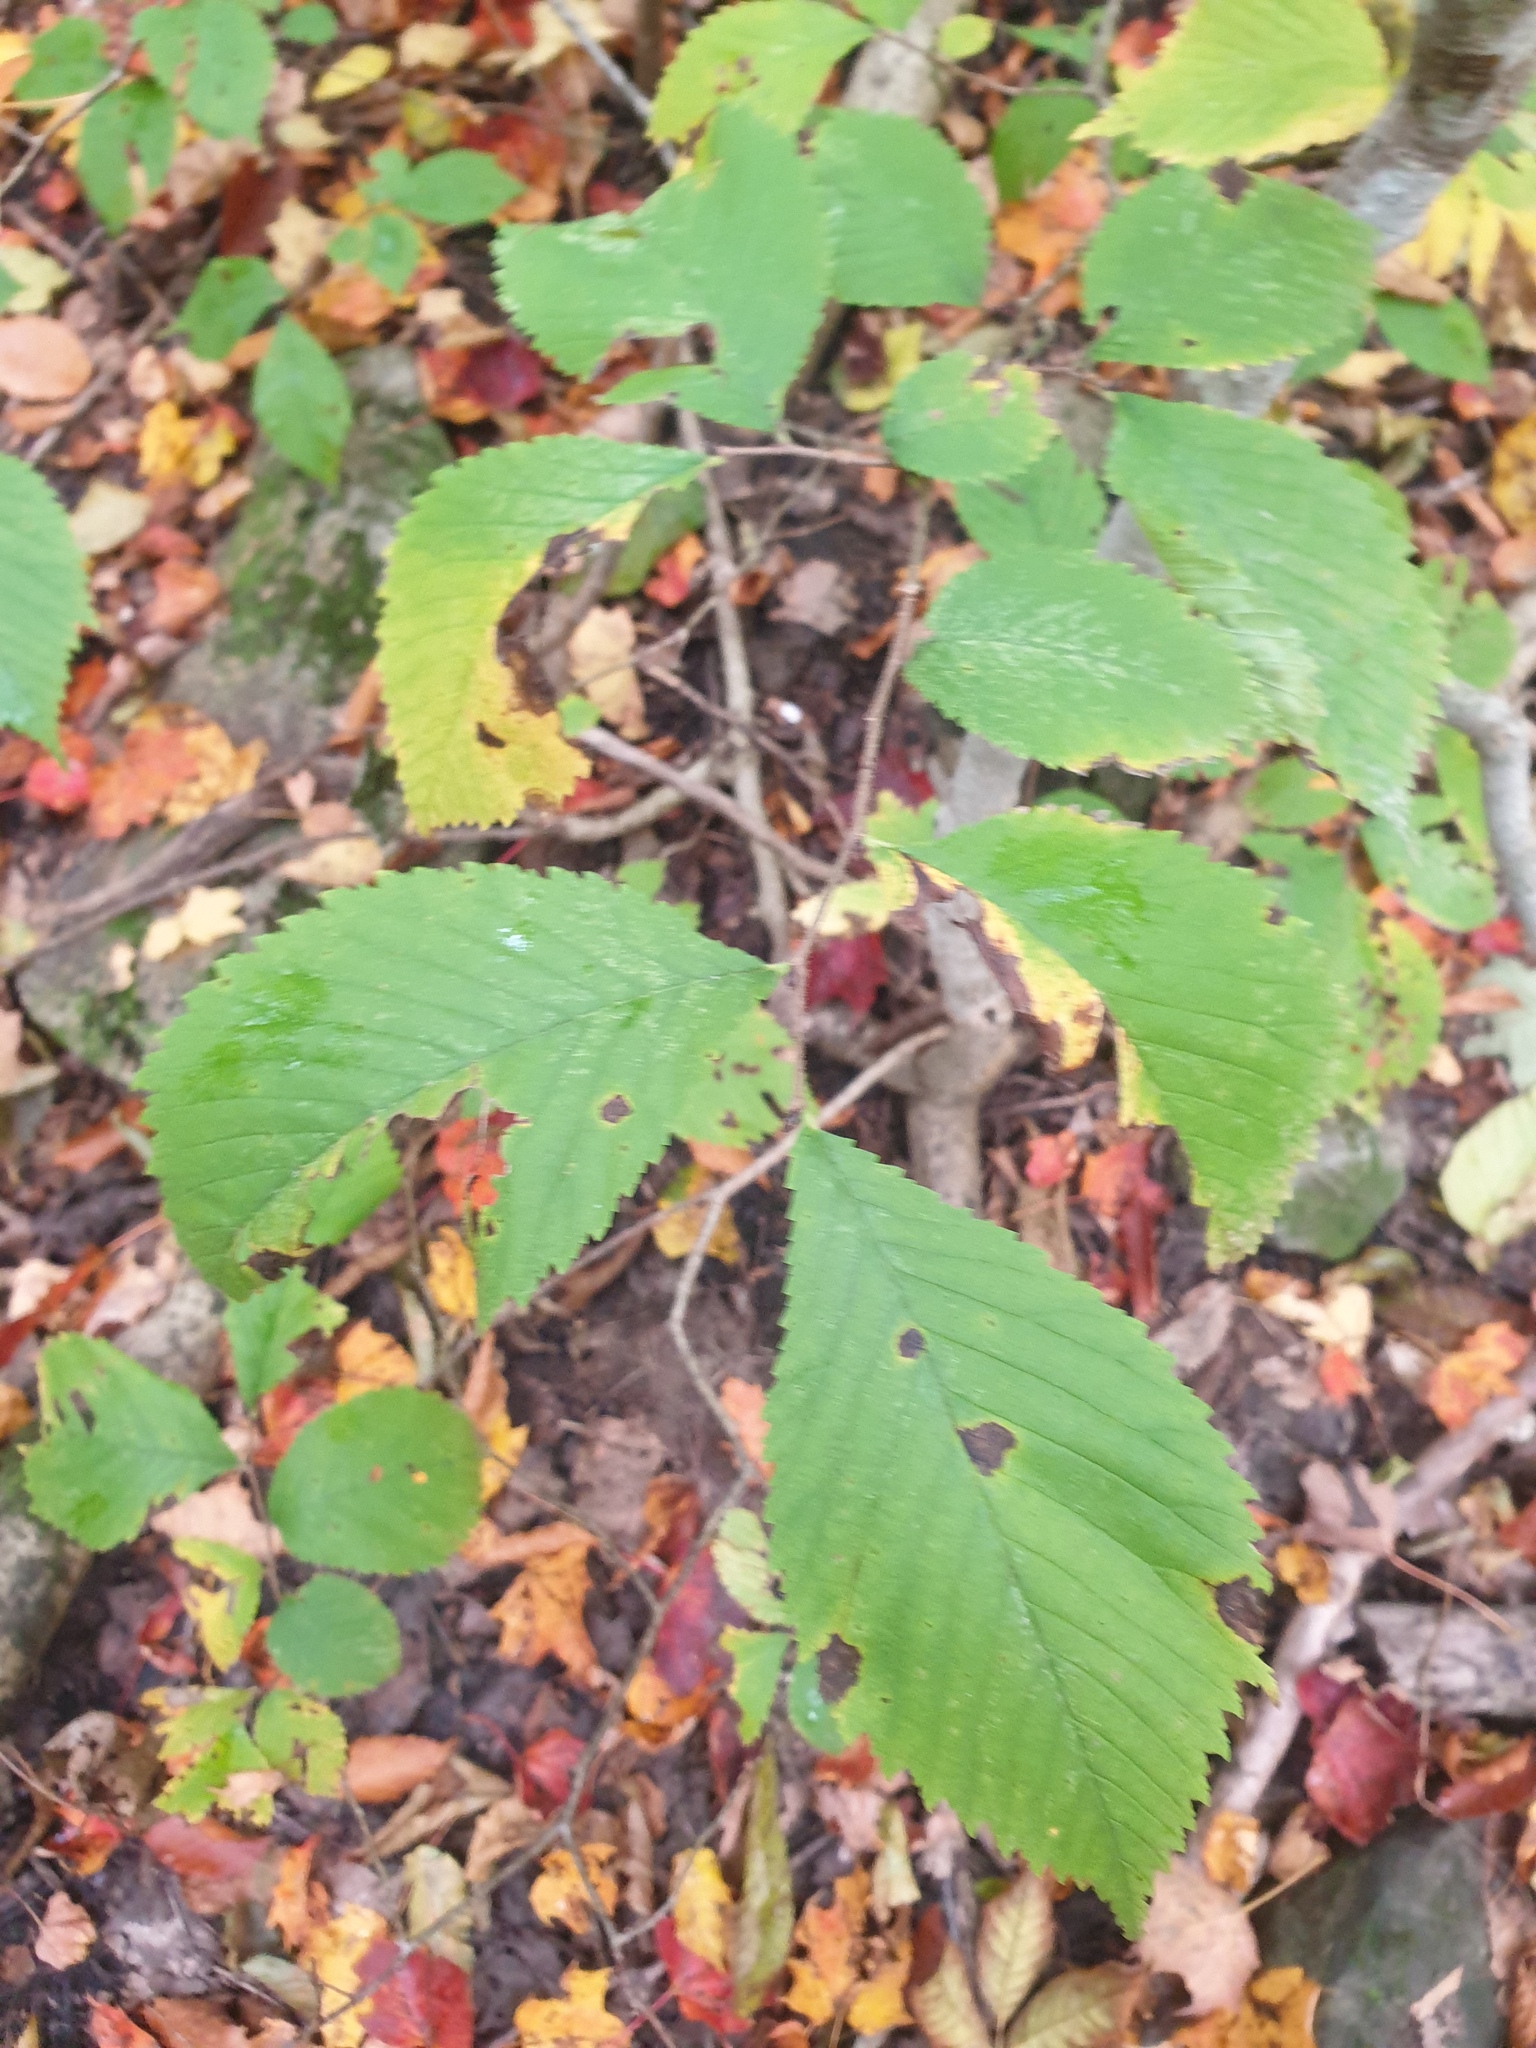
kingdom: Plantae
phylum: Tracheophyta
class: Magnoliopsida
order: Rosales
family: Ulmaceae
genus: Ulmus
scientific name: Ulmus rubra
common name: Slippery elm
